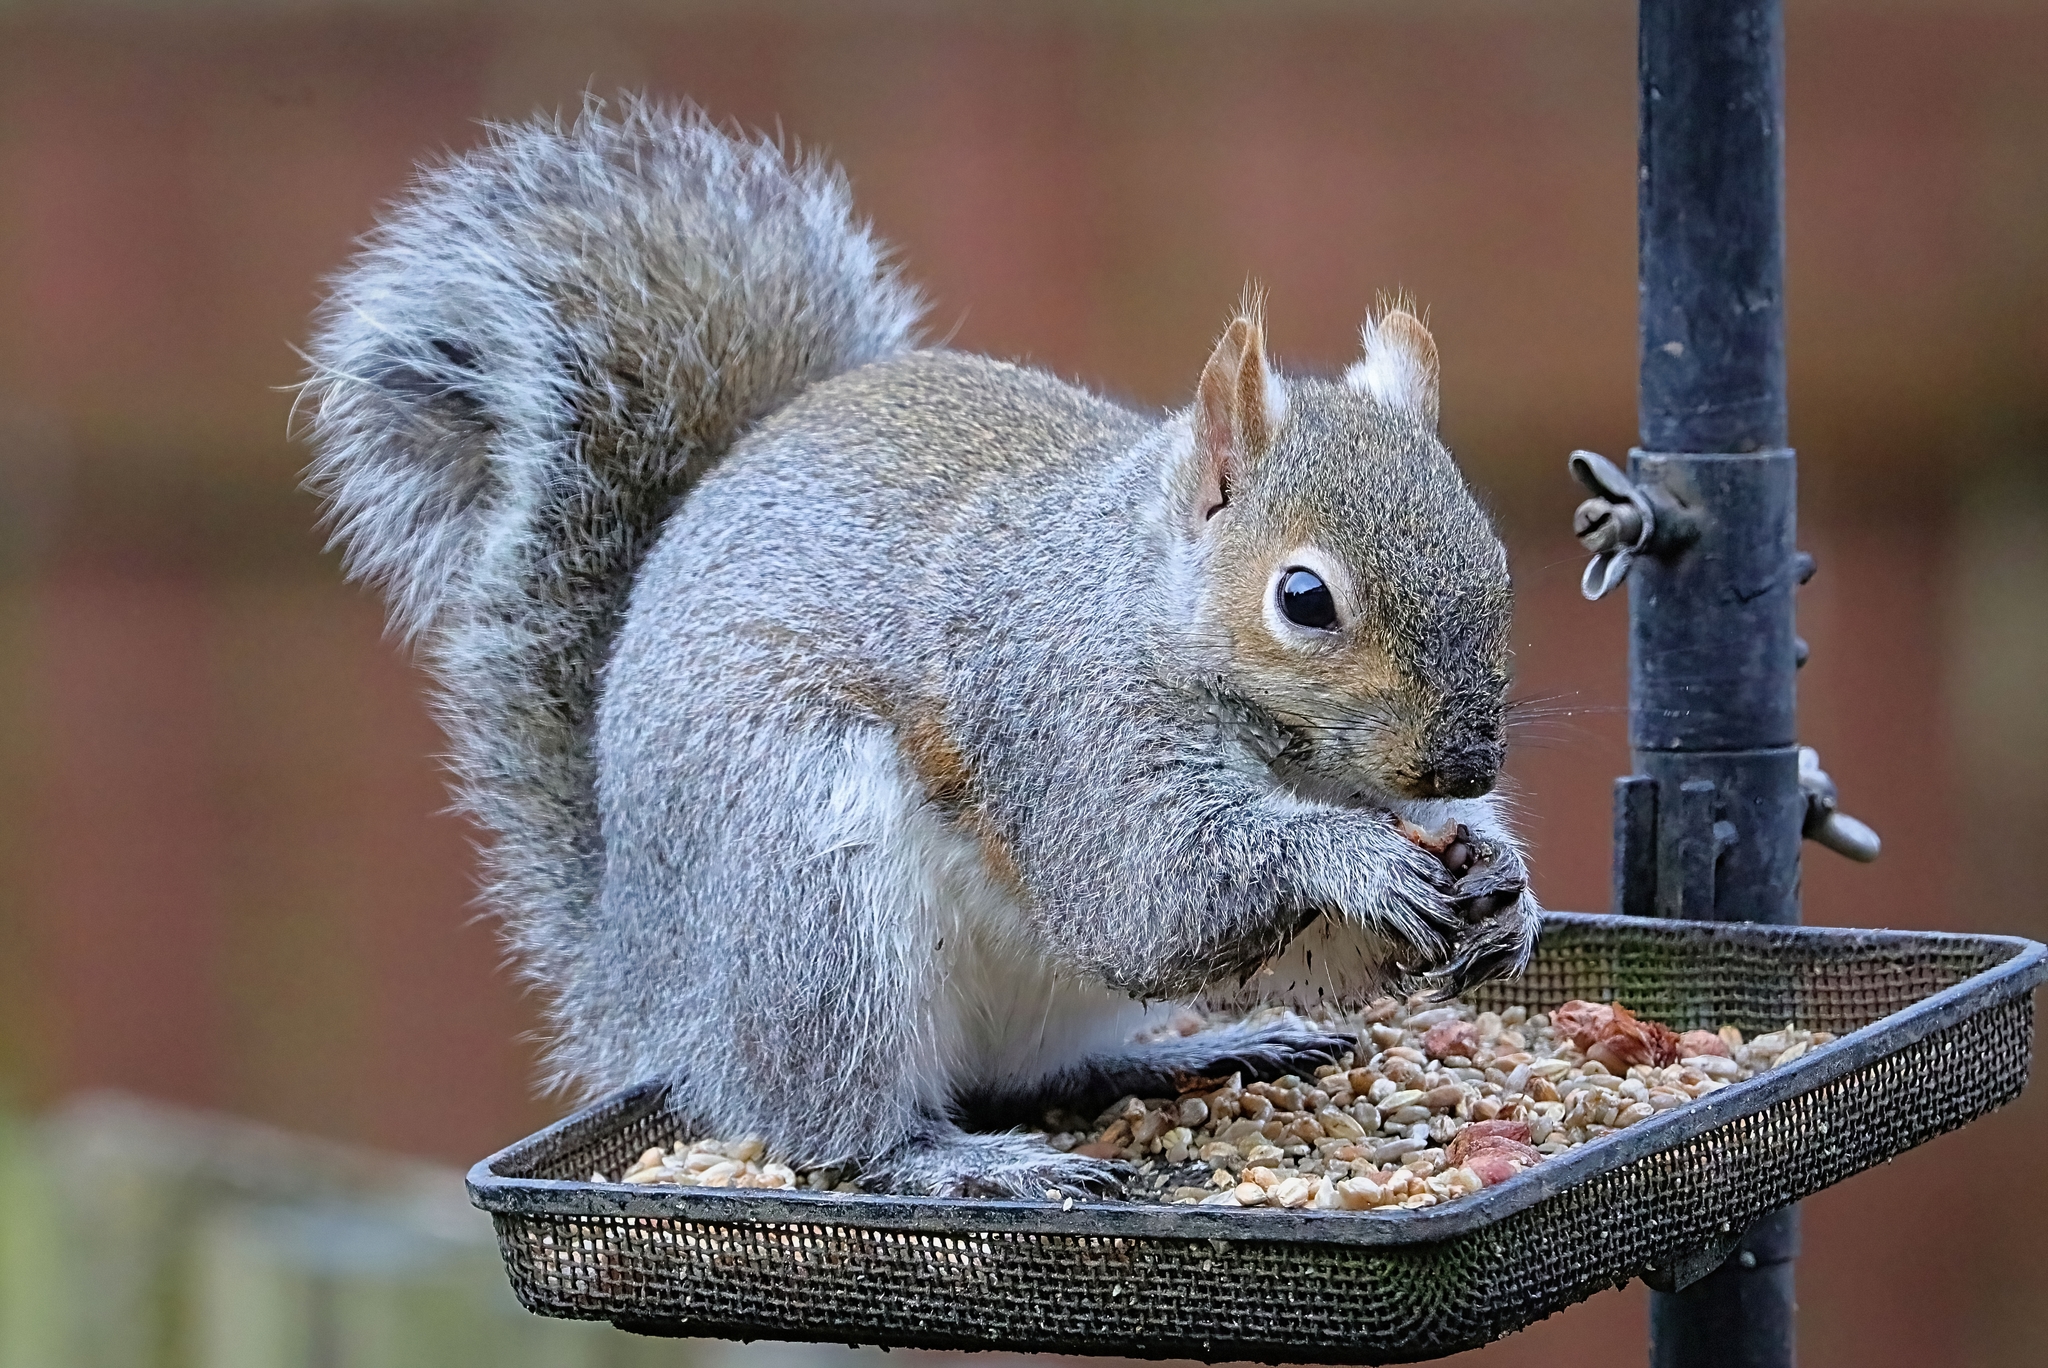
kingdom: Animalia
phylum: Chordata
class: Mammalia
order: Rodentia
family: Sciuridae
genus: Sciurus
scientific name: Sciurus carolinensis
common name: Eastern gray squirrel
